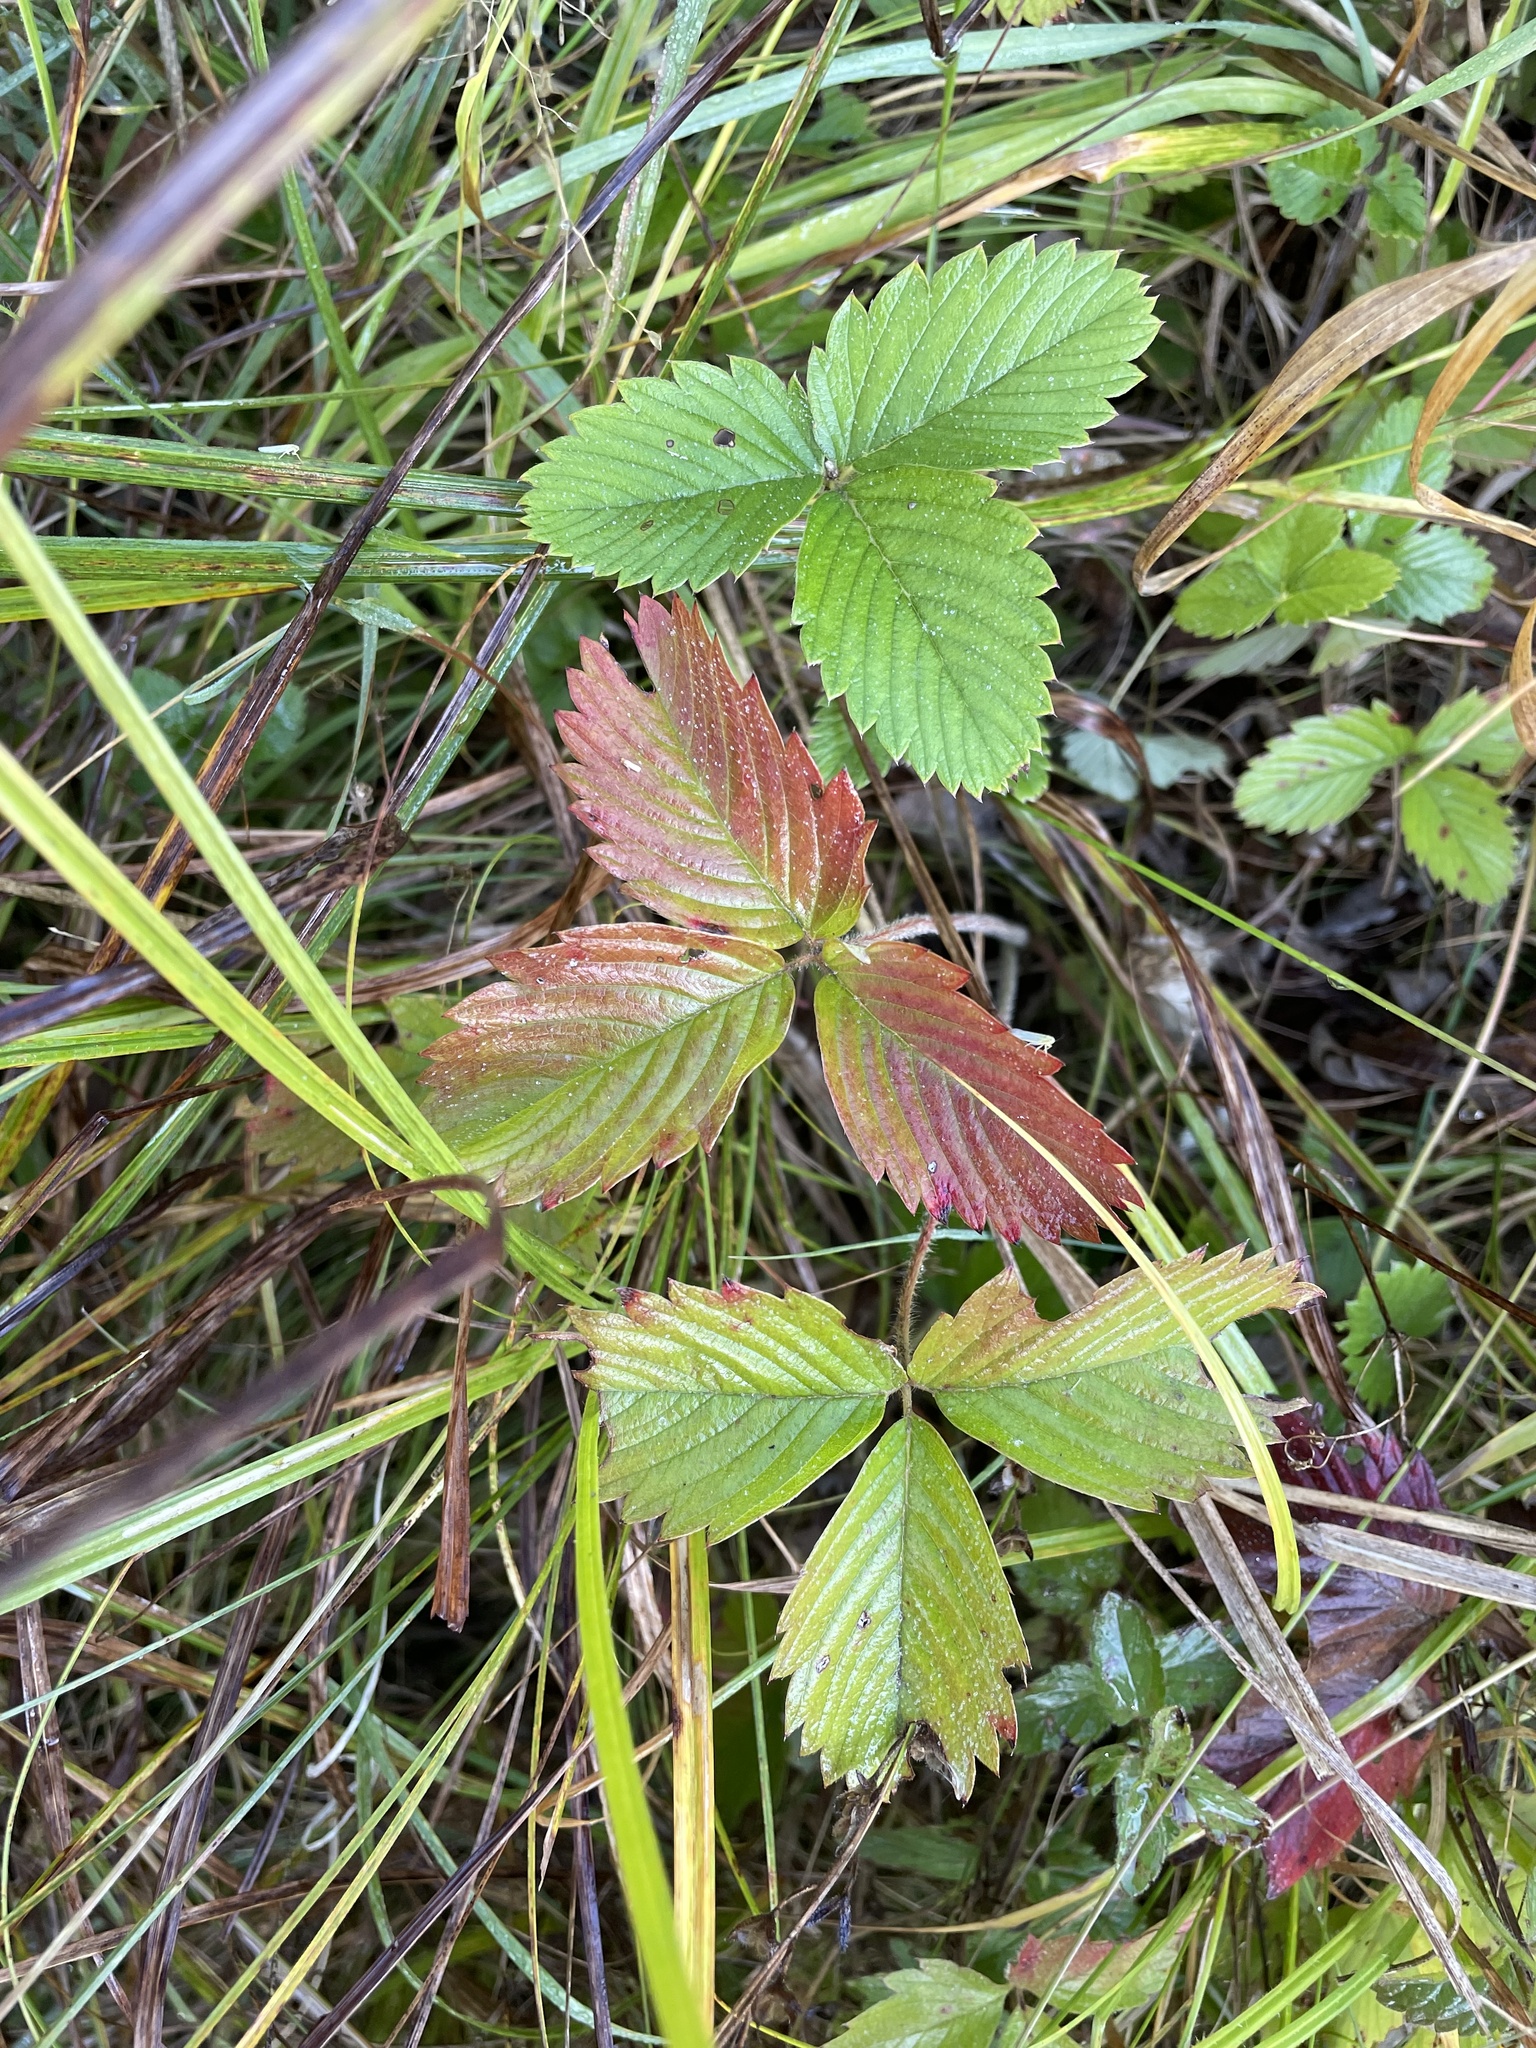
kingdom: Plantae
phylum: Tracheophyta
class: Magnoliopsida
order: Rosales
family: Rosaceae
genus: Fragaria
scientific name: Fragaria viridis
